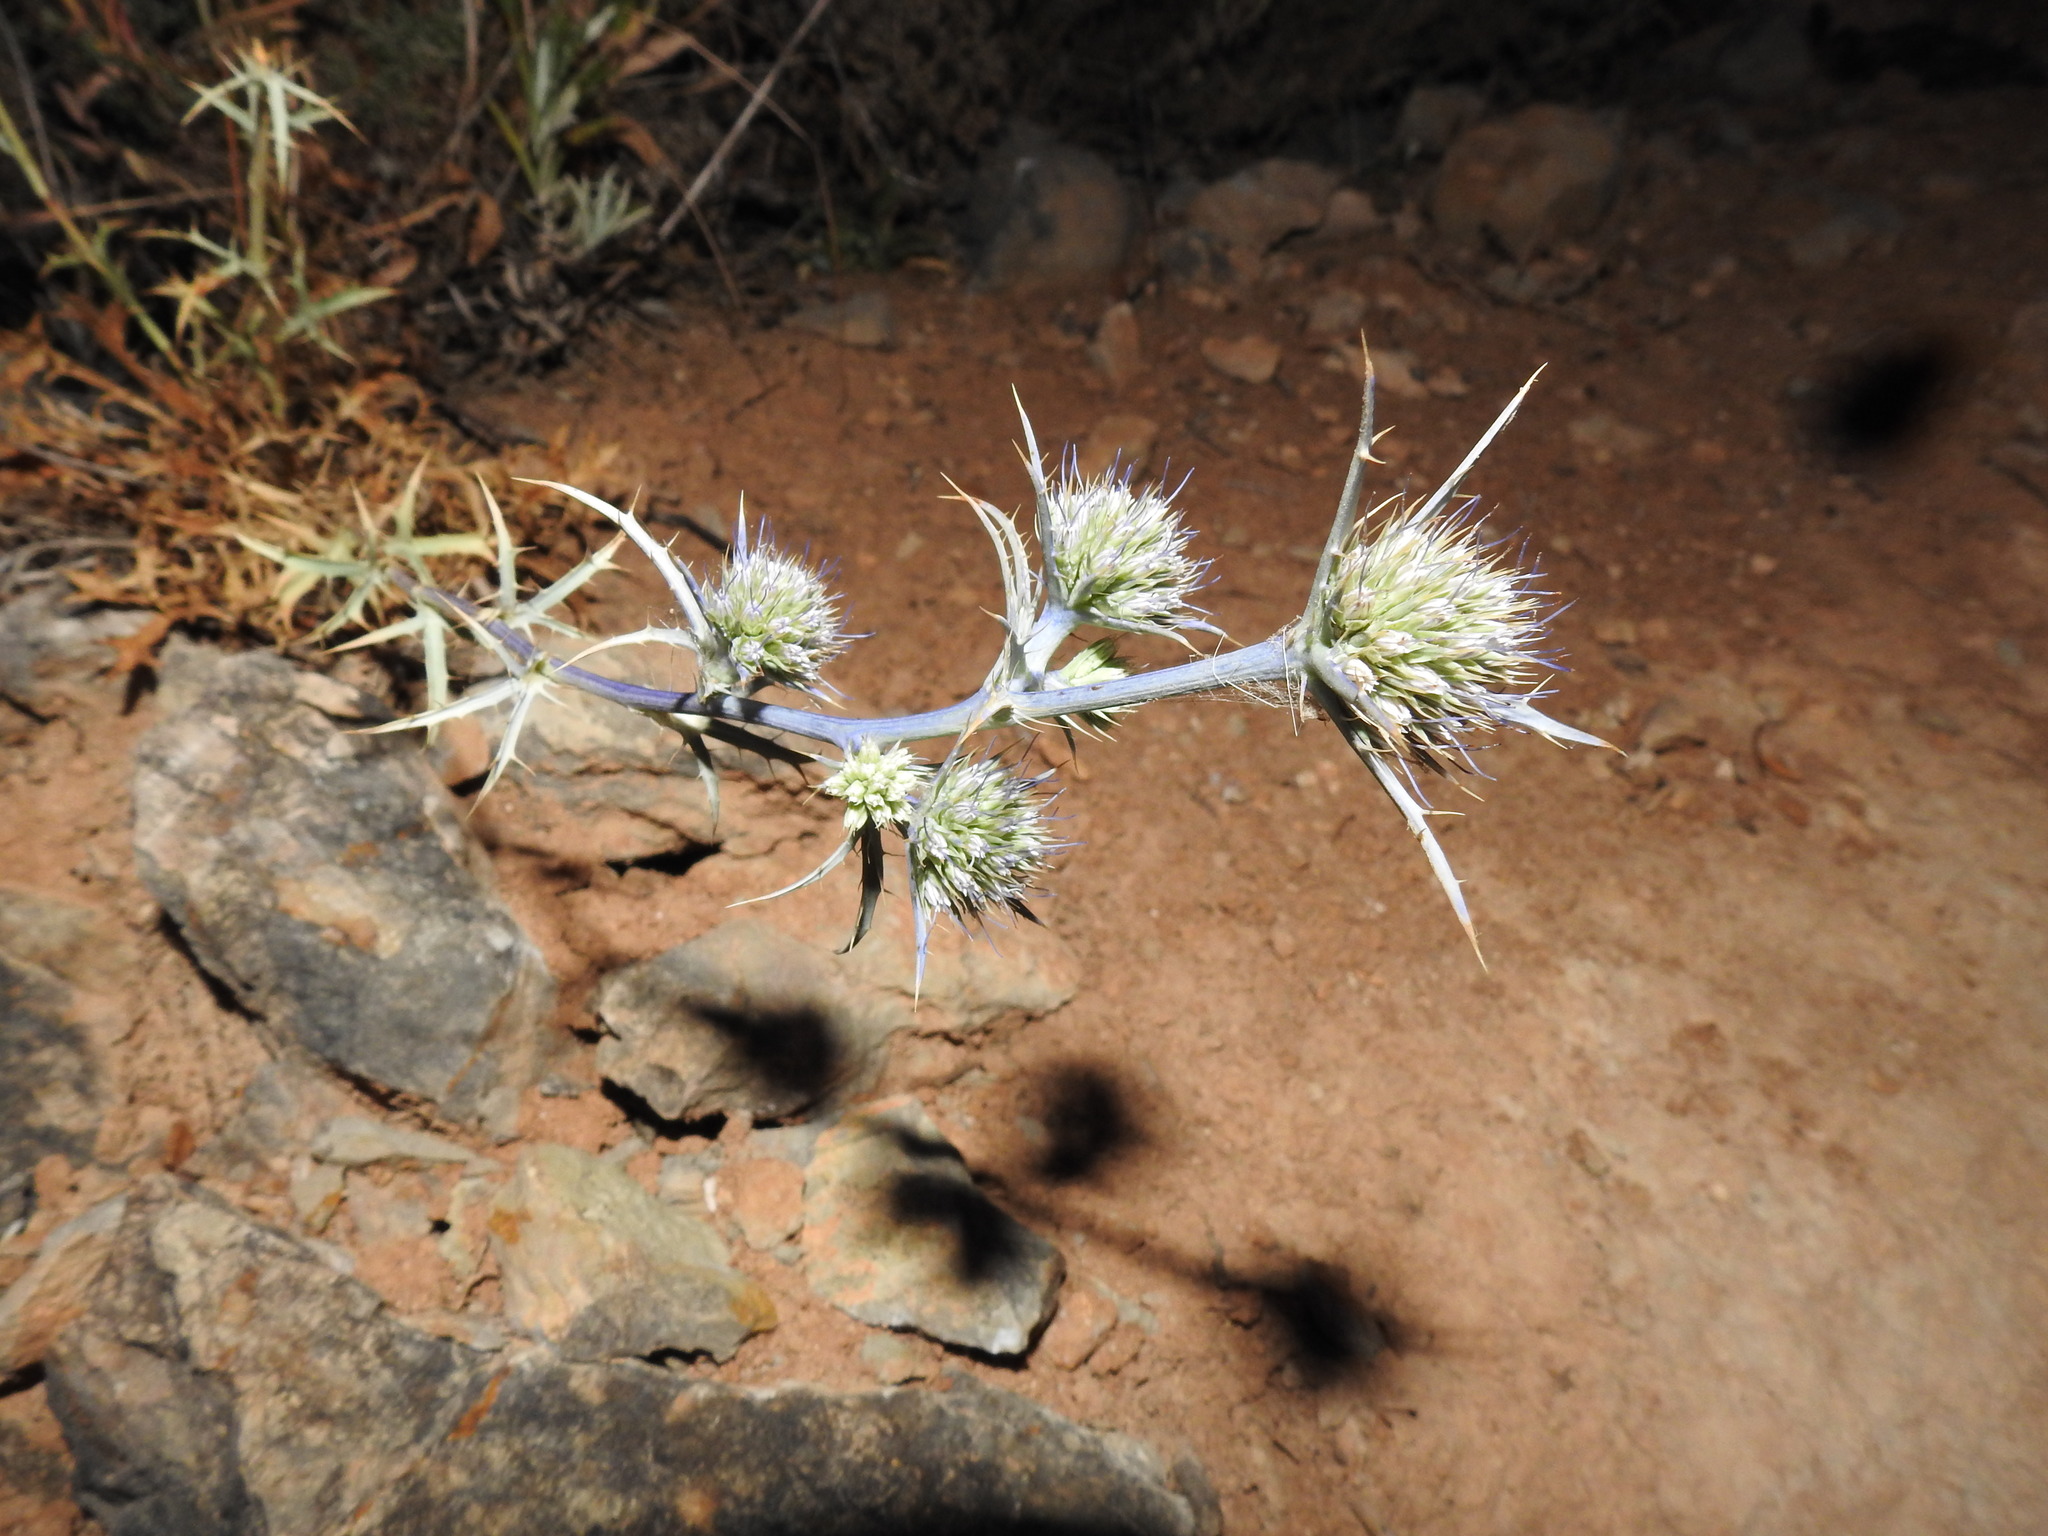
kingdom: Plantae
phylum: Tracheophyta
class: Magnoliopsida
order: Apiales
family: Apiaceae
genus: Eryngium
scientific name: Eryngium dilatatum
